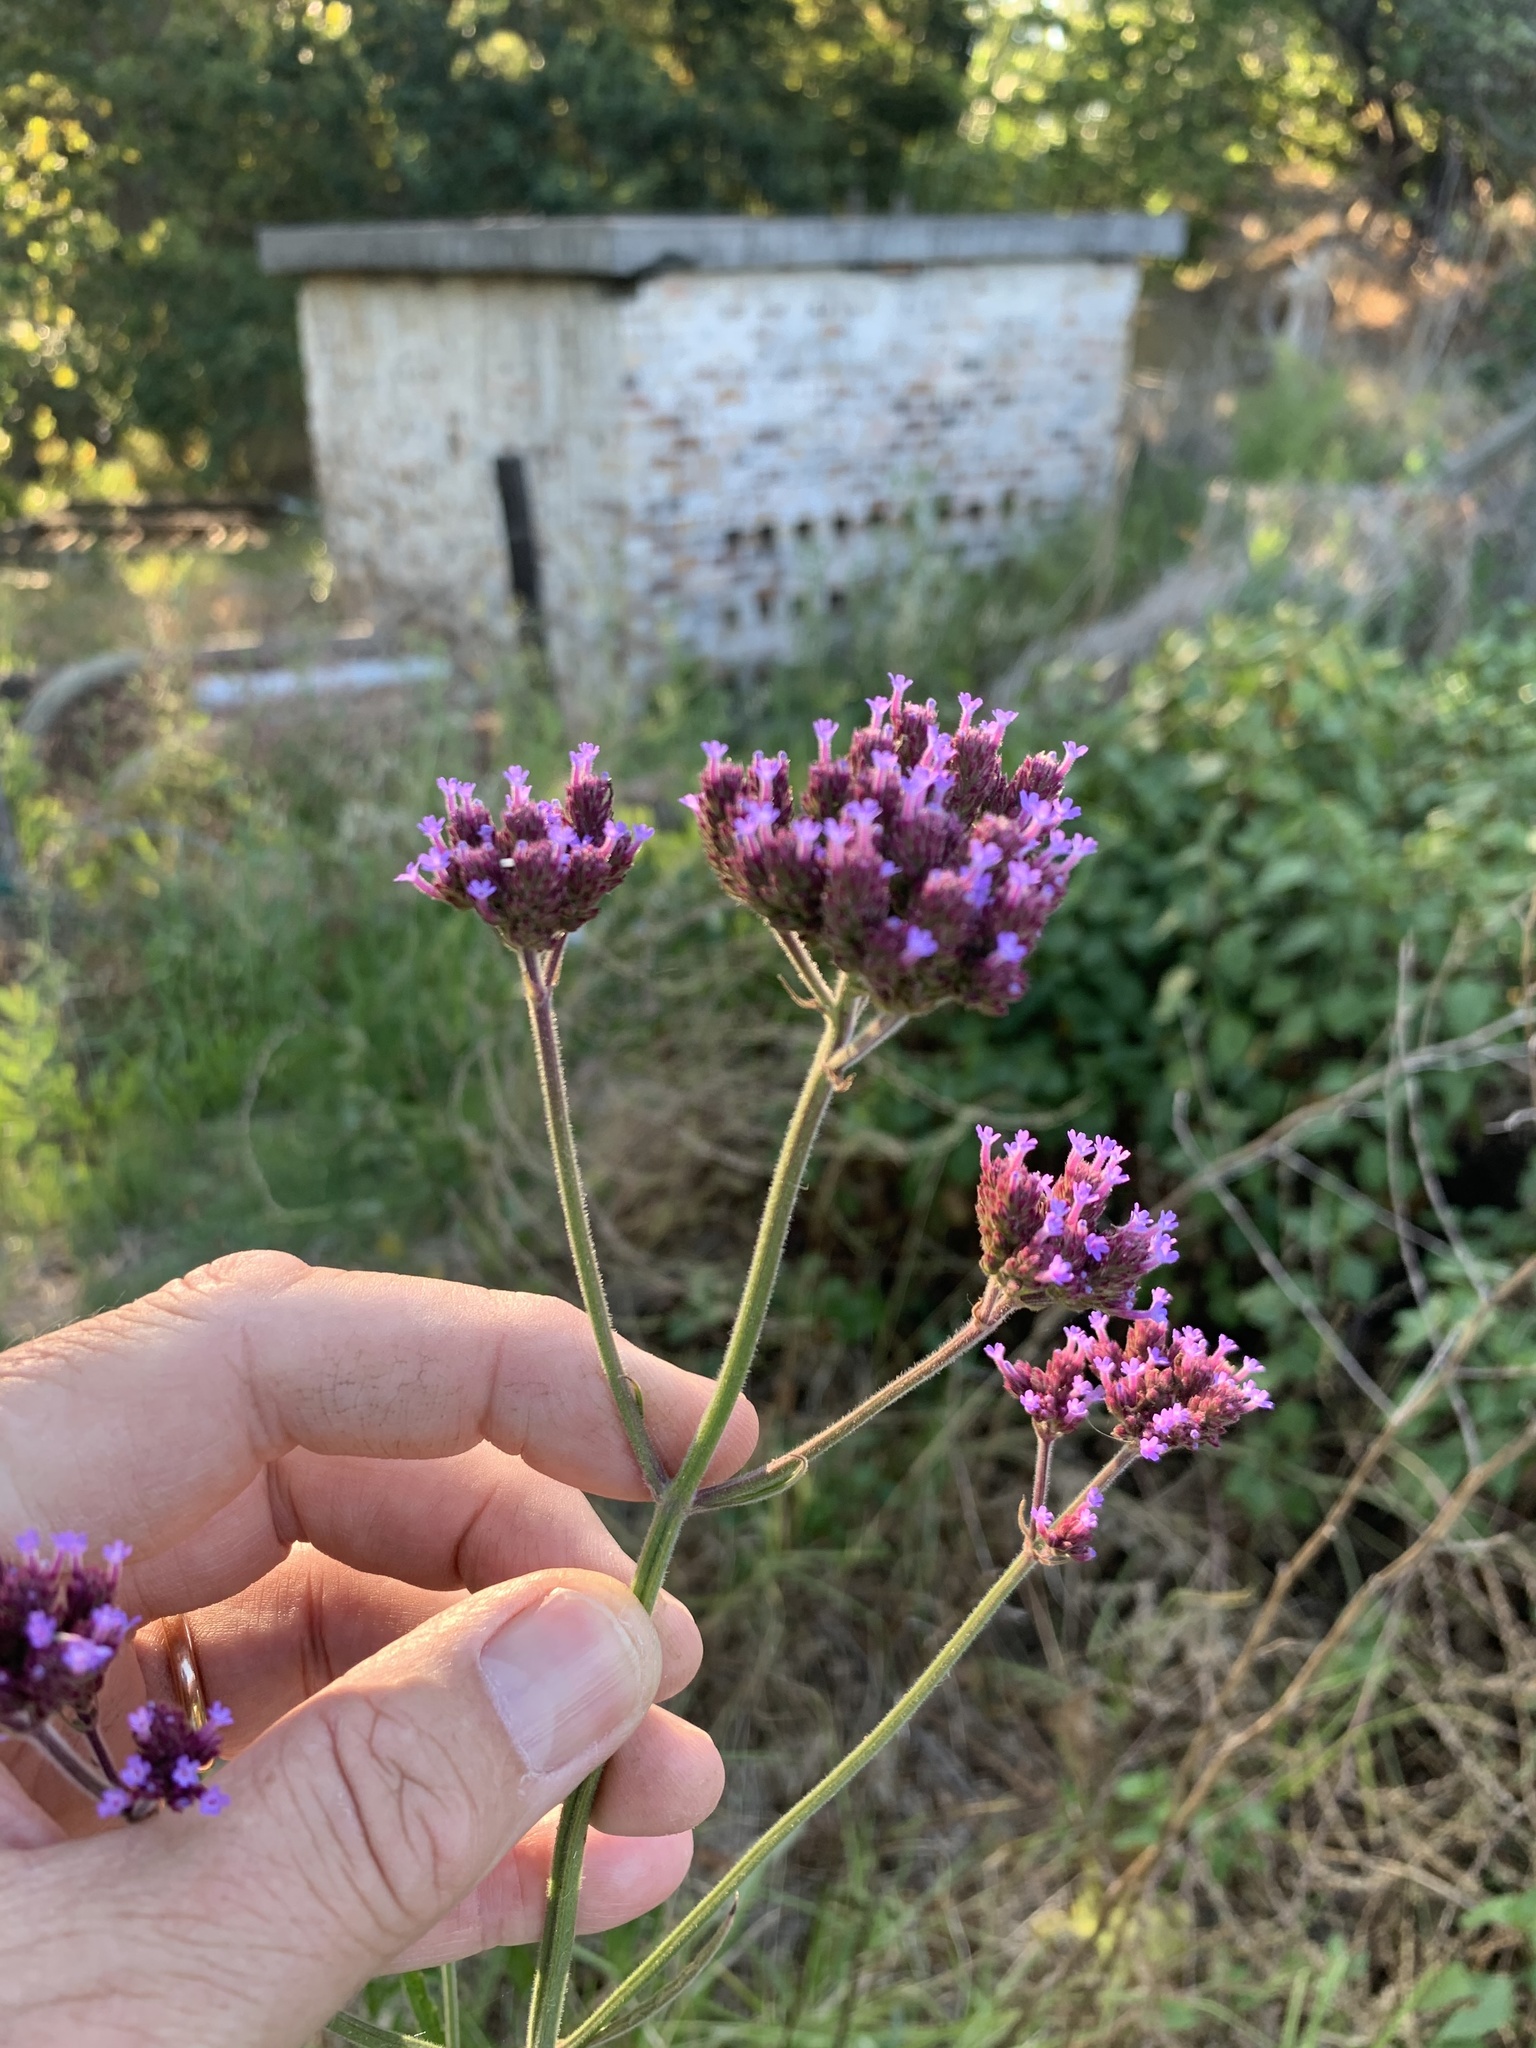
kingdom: Plantae
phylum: Tracheophyta
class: Magnoliopsida
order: Lamiales
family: Verbenaceae
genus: Verbena
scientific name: Verbena bonariensis
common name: Purpletop vervain
